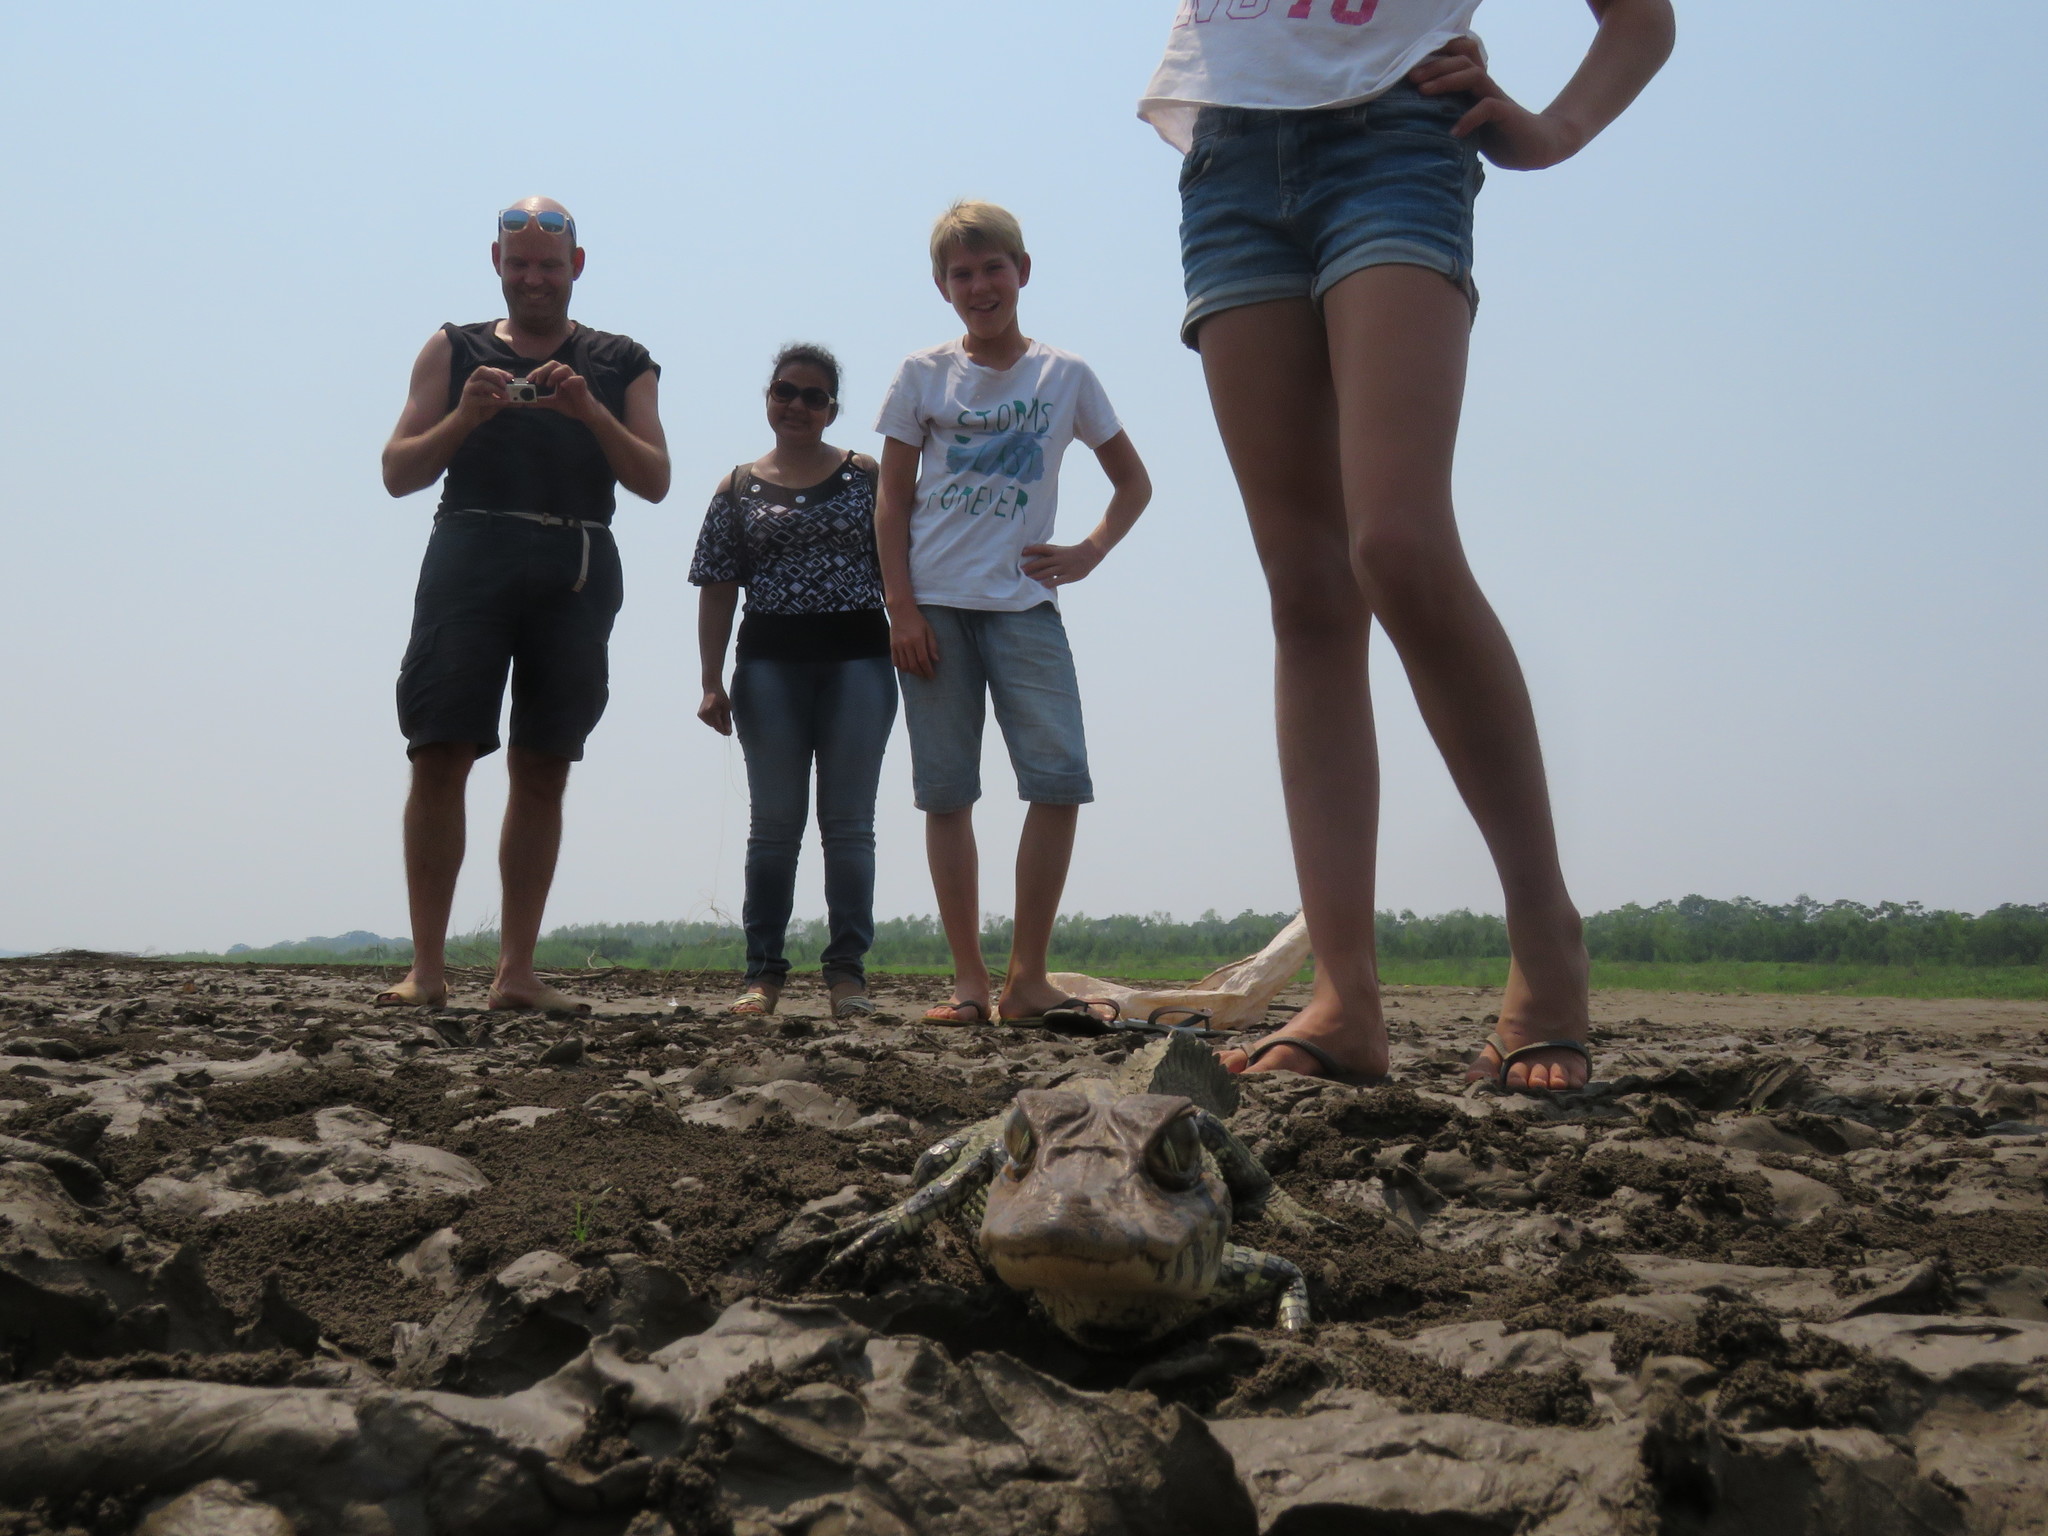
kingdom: Animalia
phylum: Chordata
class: Crocodylia
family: Alligatoridae
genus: Melanosuchus
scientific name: Melanosuchus niger
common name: Black caiman
